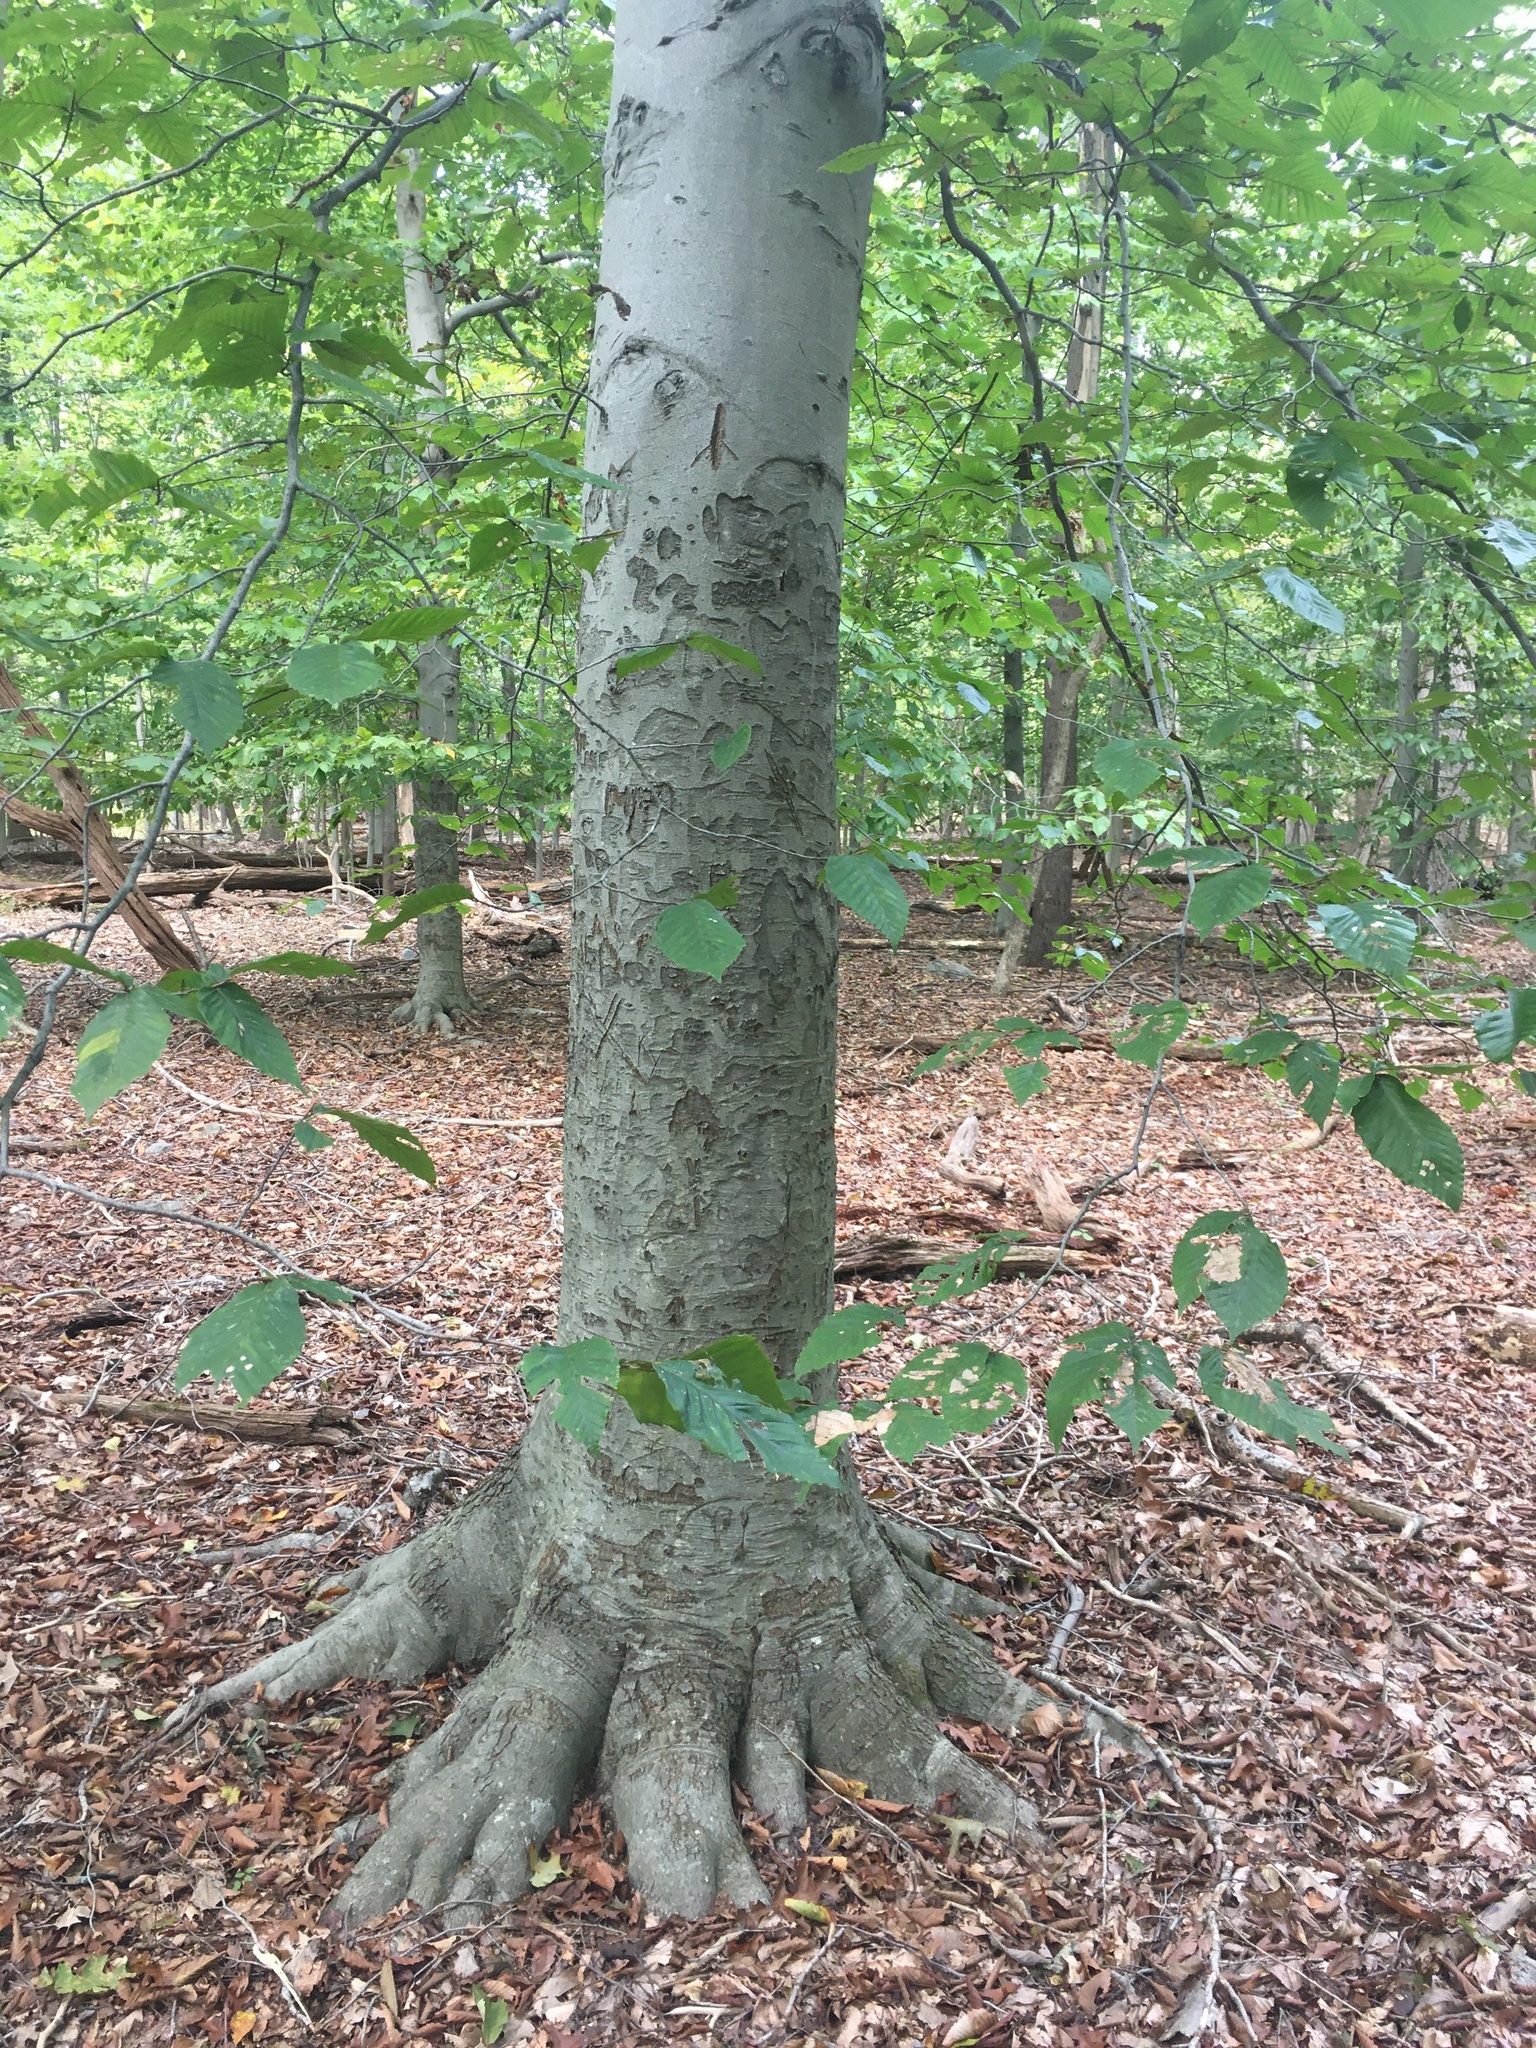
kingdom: Plantae
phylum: Tracheophyta
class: Magnoliopsida
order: Fagales
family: Fagaceae
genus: Fagus
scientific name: Fagus grandifolia
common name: American beech
